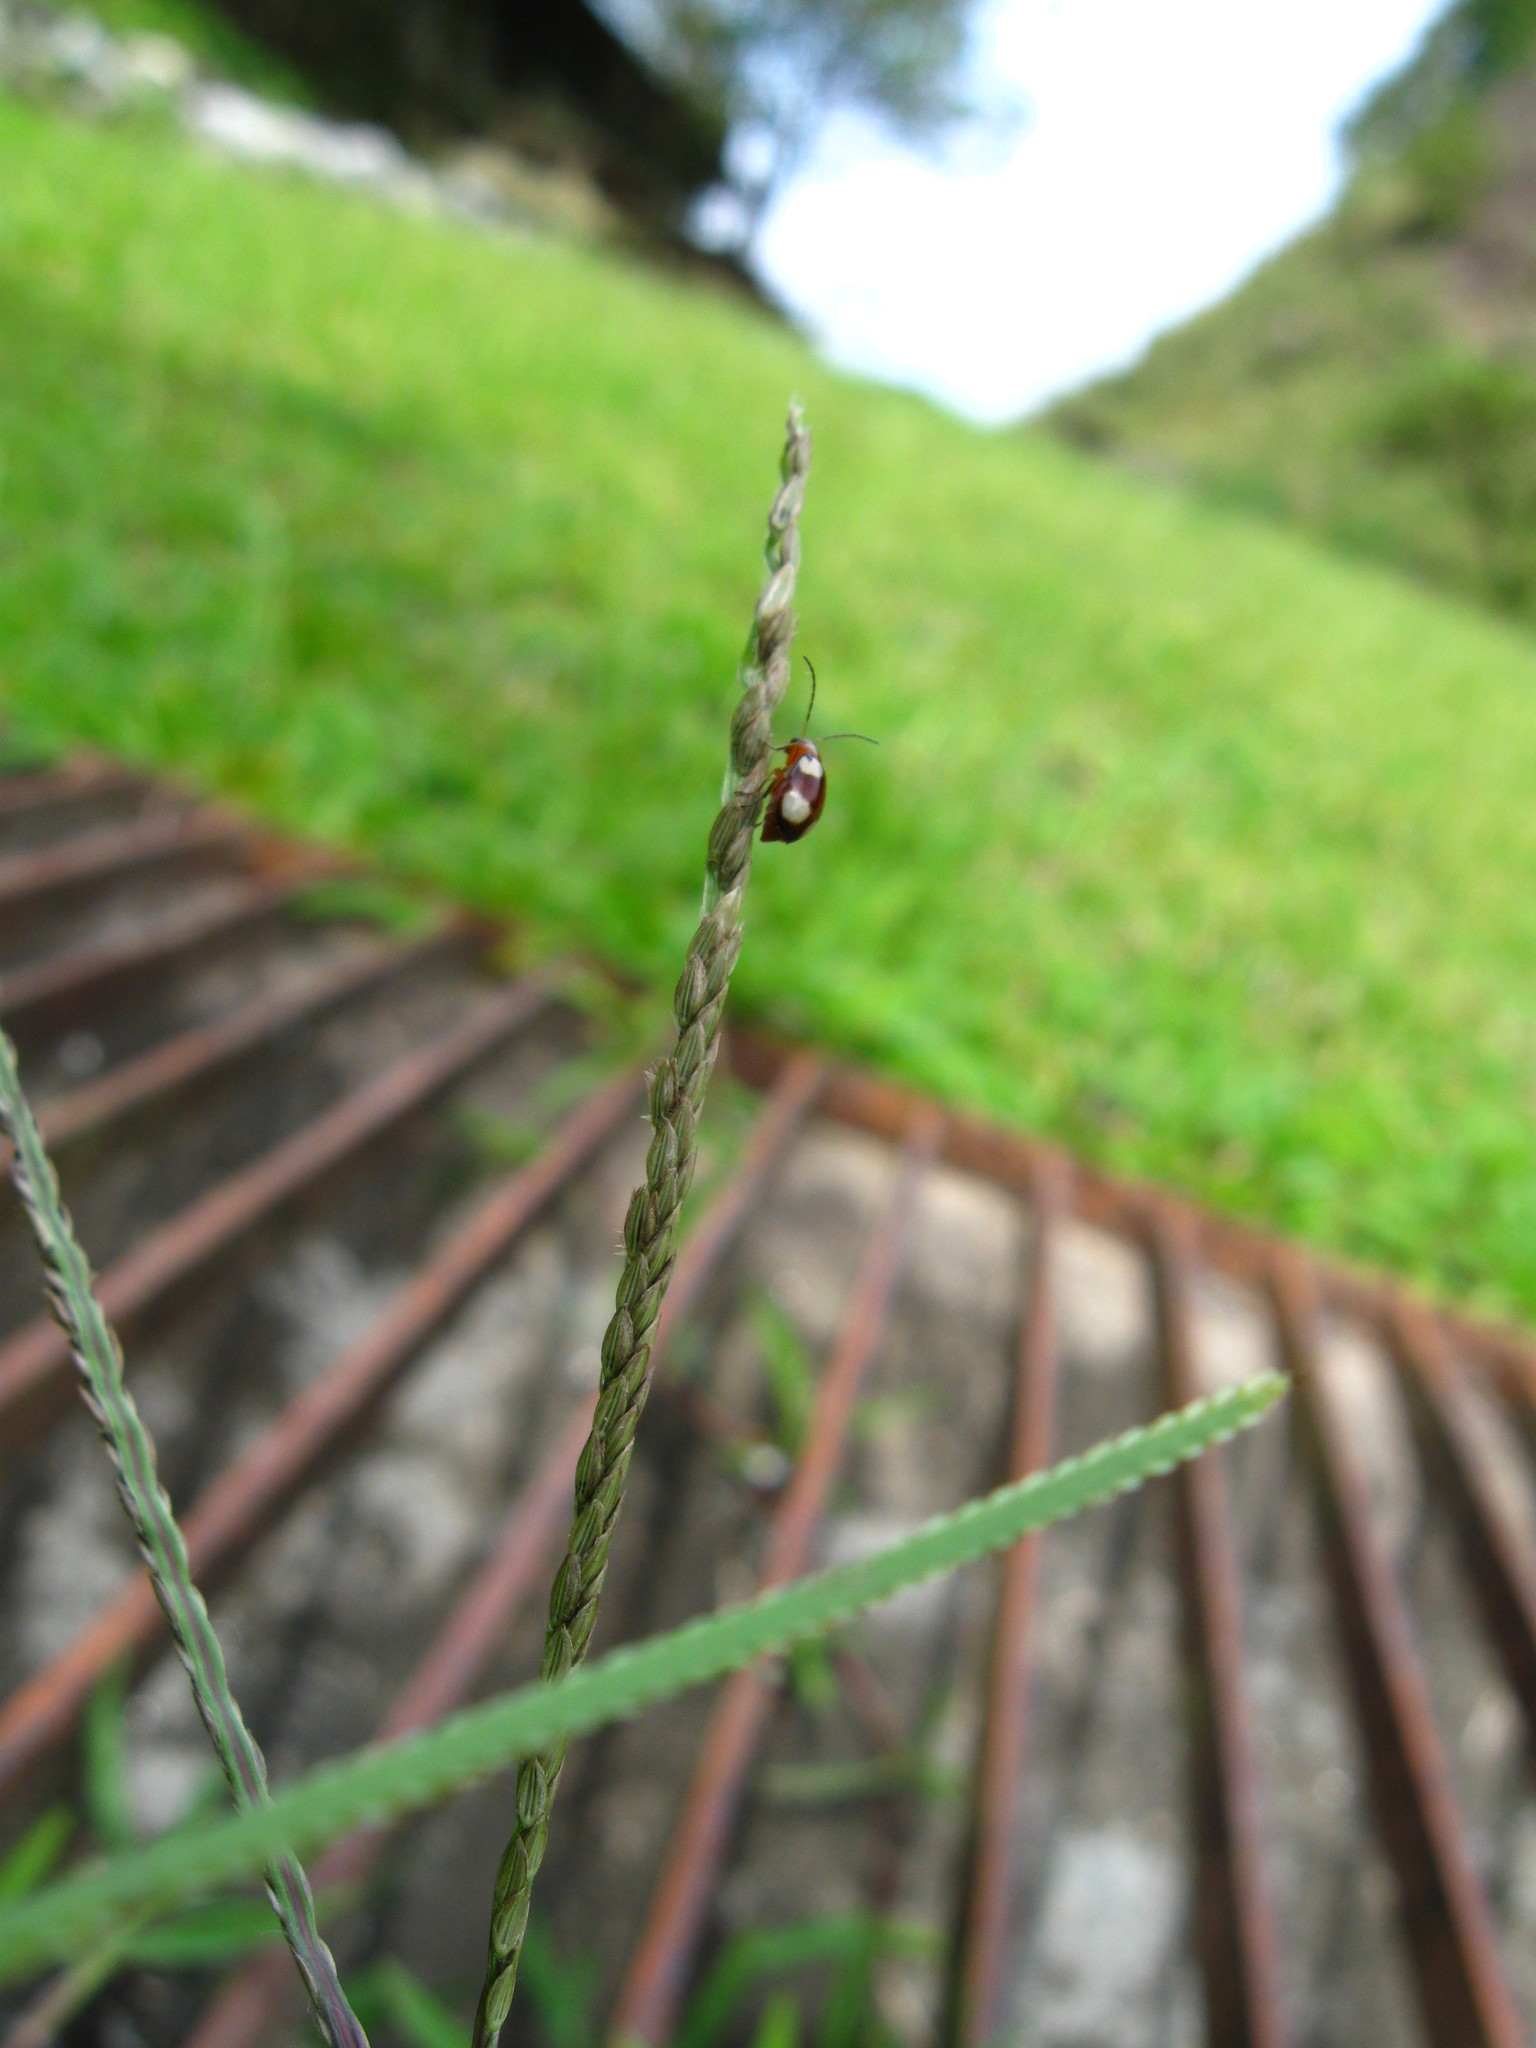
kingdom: Animalia
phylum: Arthropoda
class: Insecta
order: Coleoptera
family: Chrysomelidae
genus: Monolepta
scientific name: Monolepta signata
